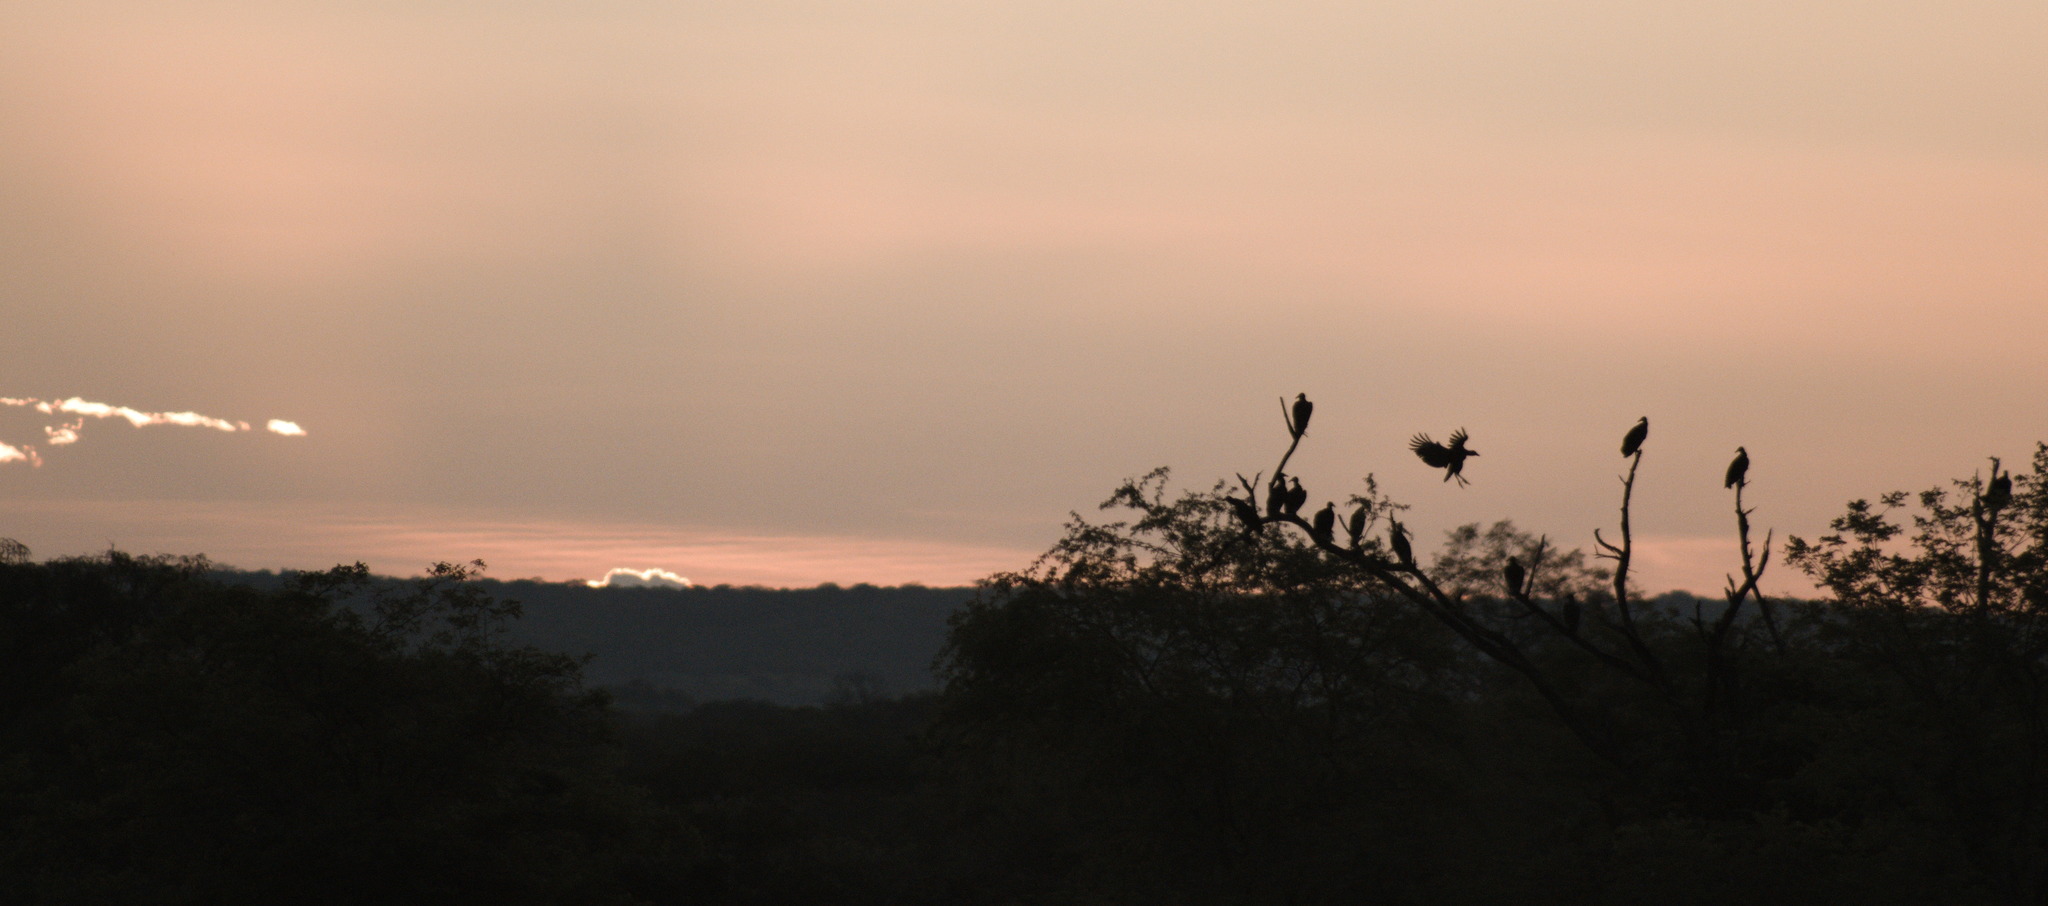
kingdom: Animalia
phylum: Chordata
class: Aves
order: Accipitriformes
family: Cathartidae
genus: Coragyps
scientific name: Coragyps atratus
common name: Black vulture
